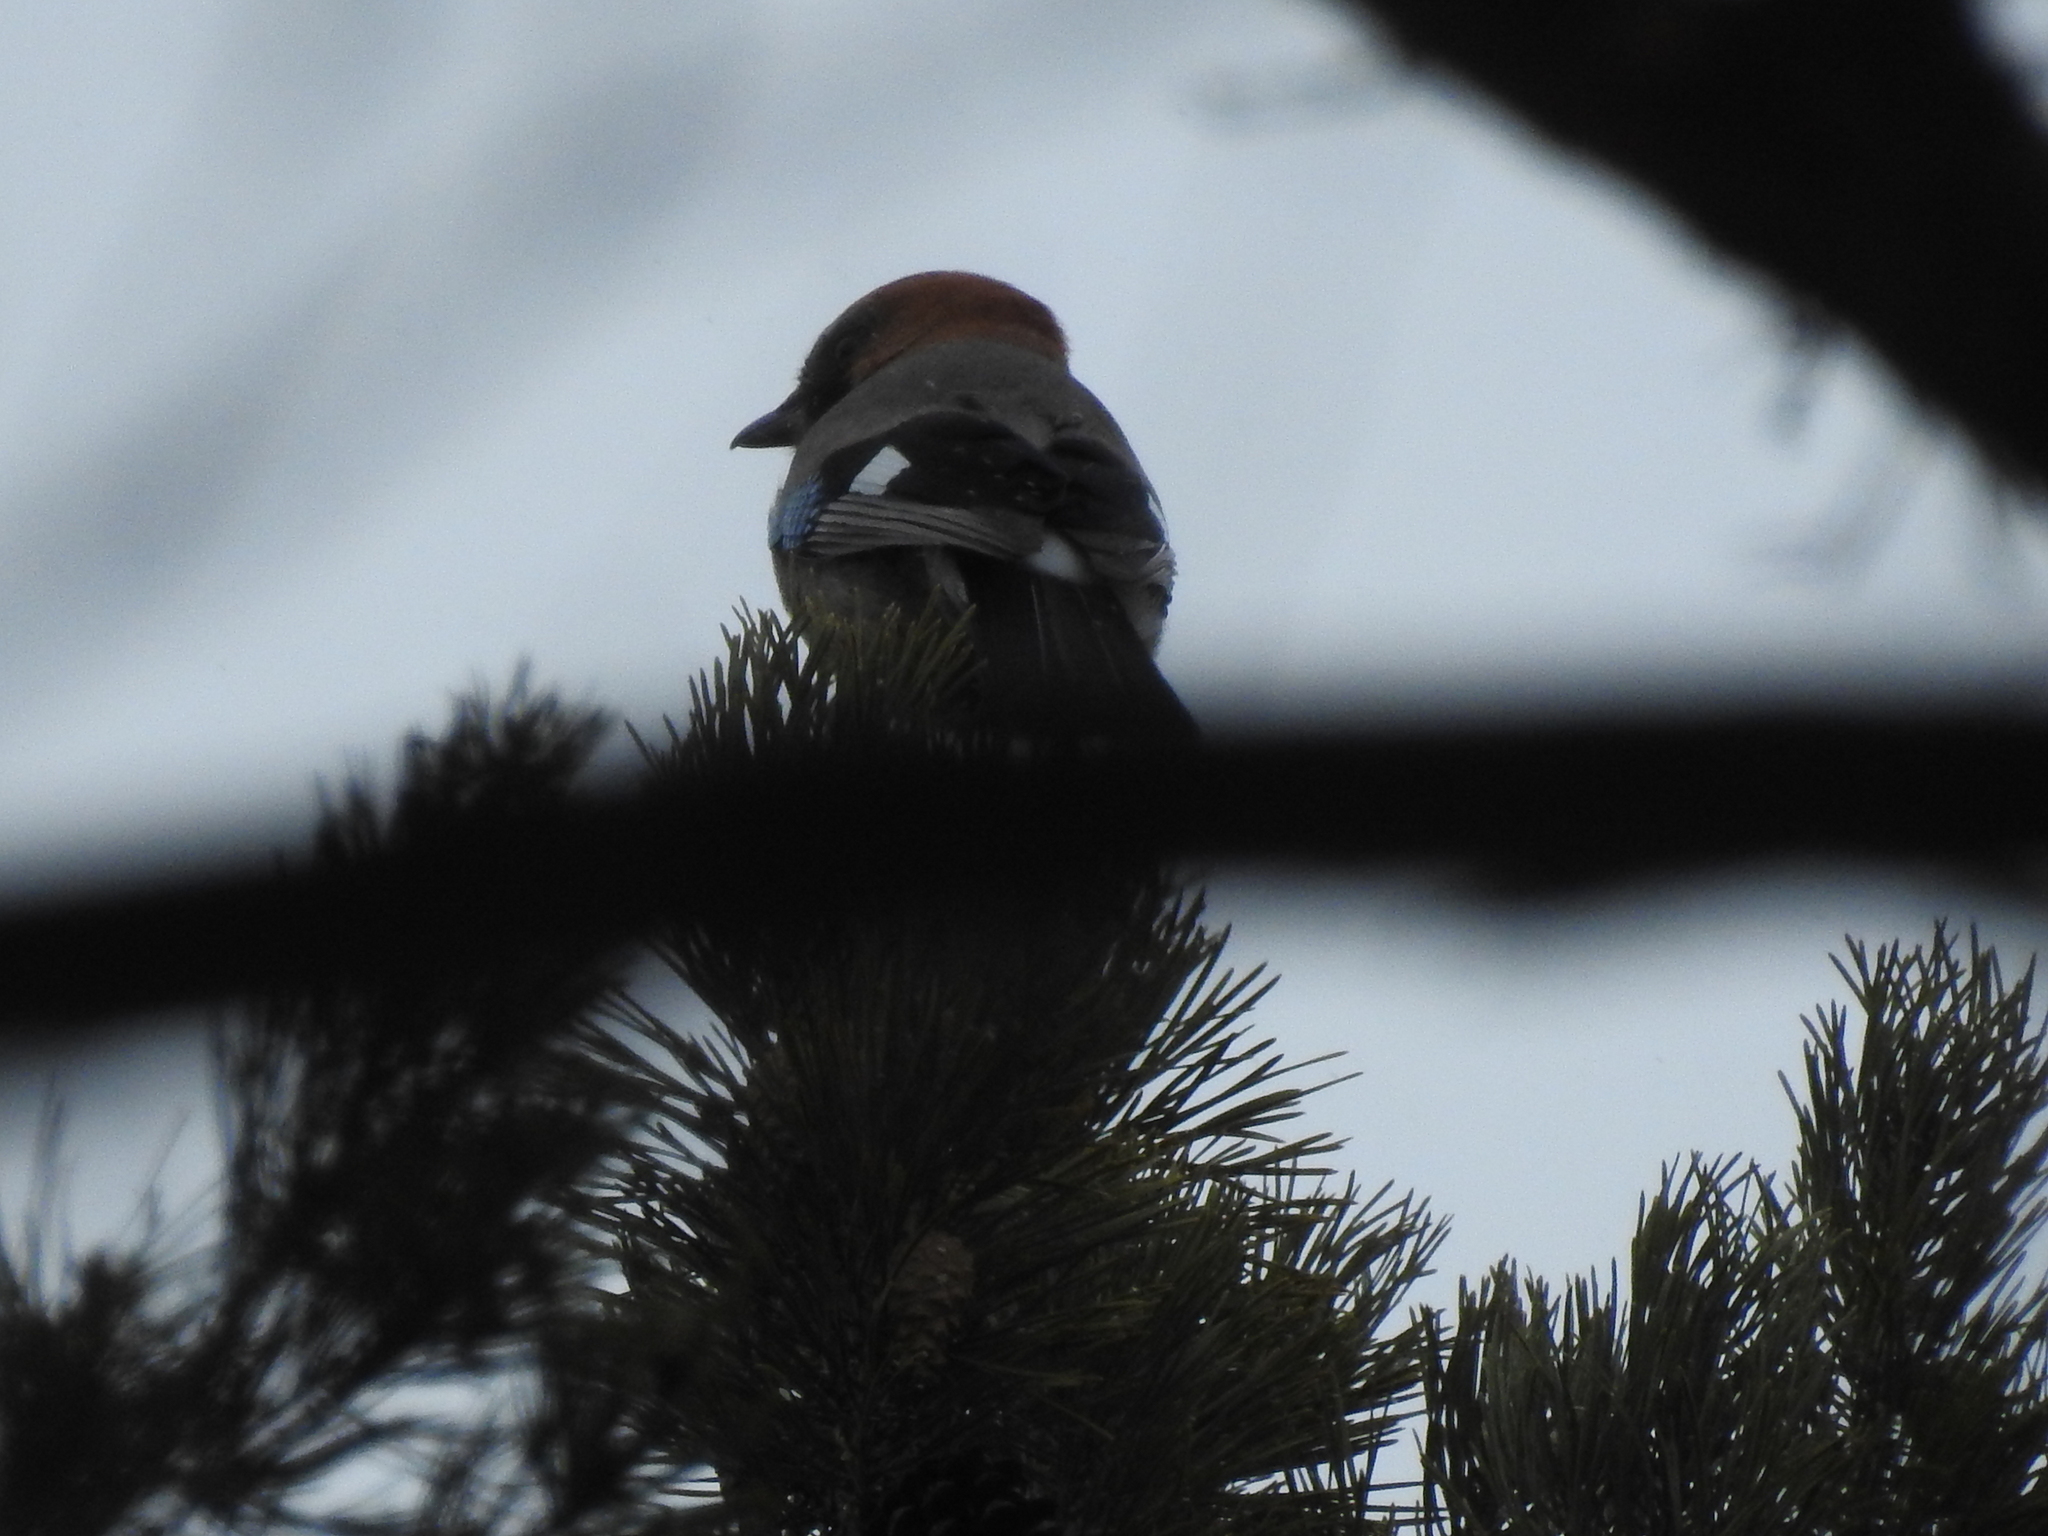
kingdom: Animalia
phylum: Chordata
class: Aves
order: Passeriformes
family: Corvidae
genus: Garrulus
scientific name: Garrulus glandarius
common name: Eurasian jay
